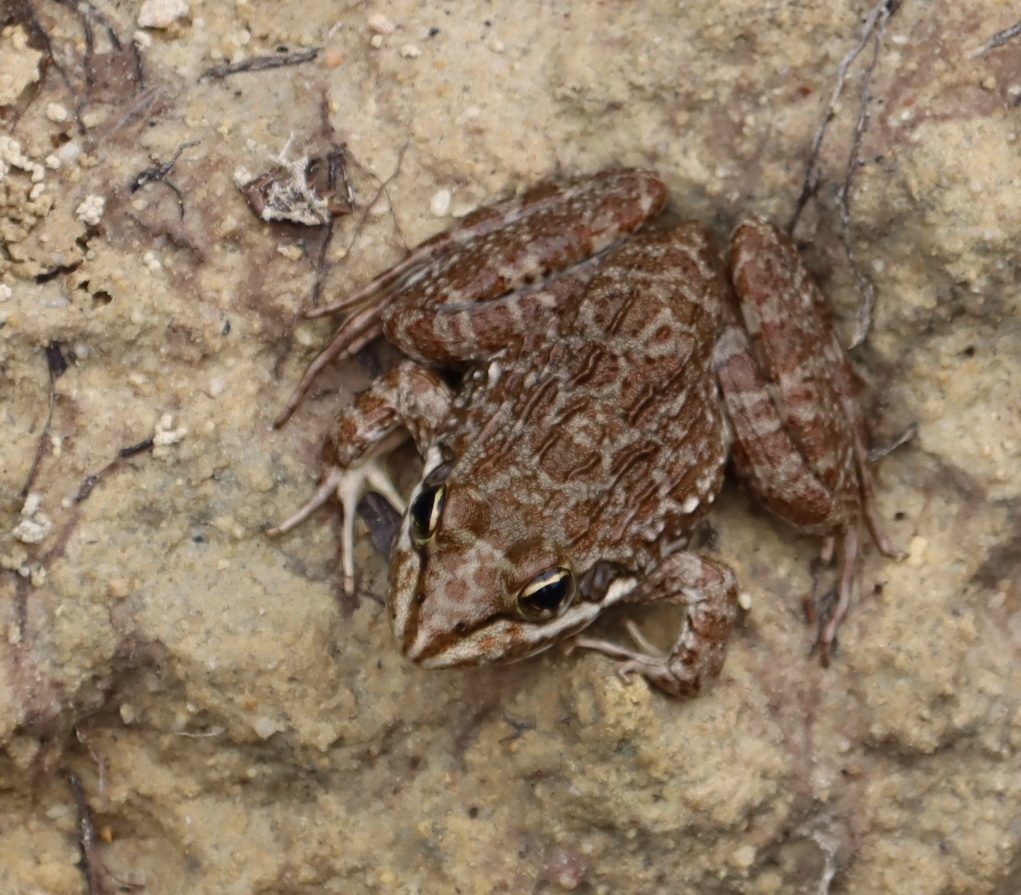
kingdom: Animalia
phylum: Chordata
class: Amphibia
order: Anura
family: Pyxicephalidae
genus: Amietia
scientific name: Amietia fuscigula
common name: Cape rana
